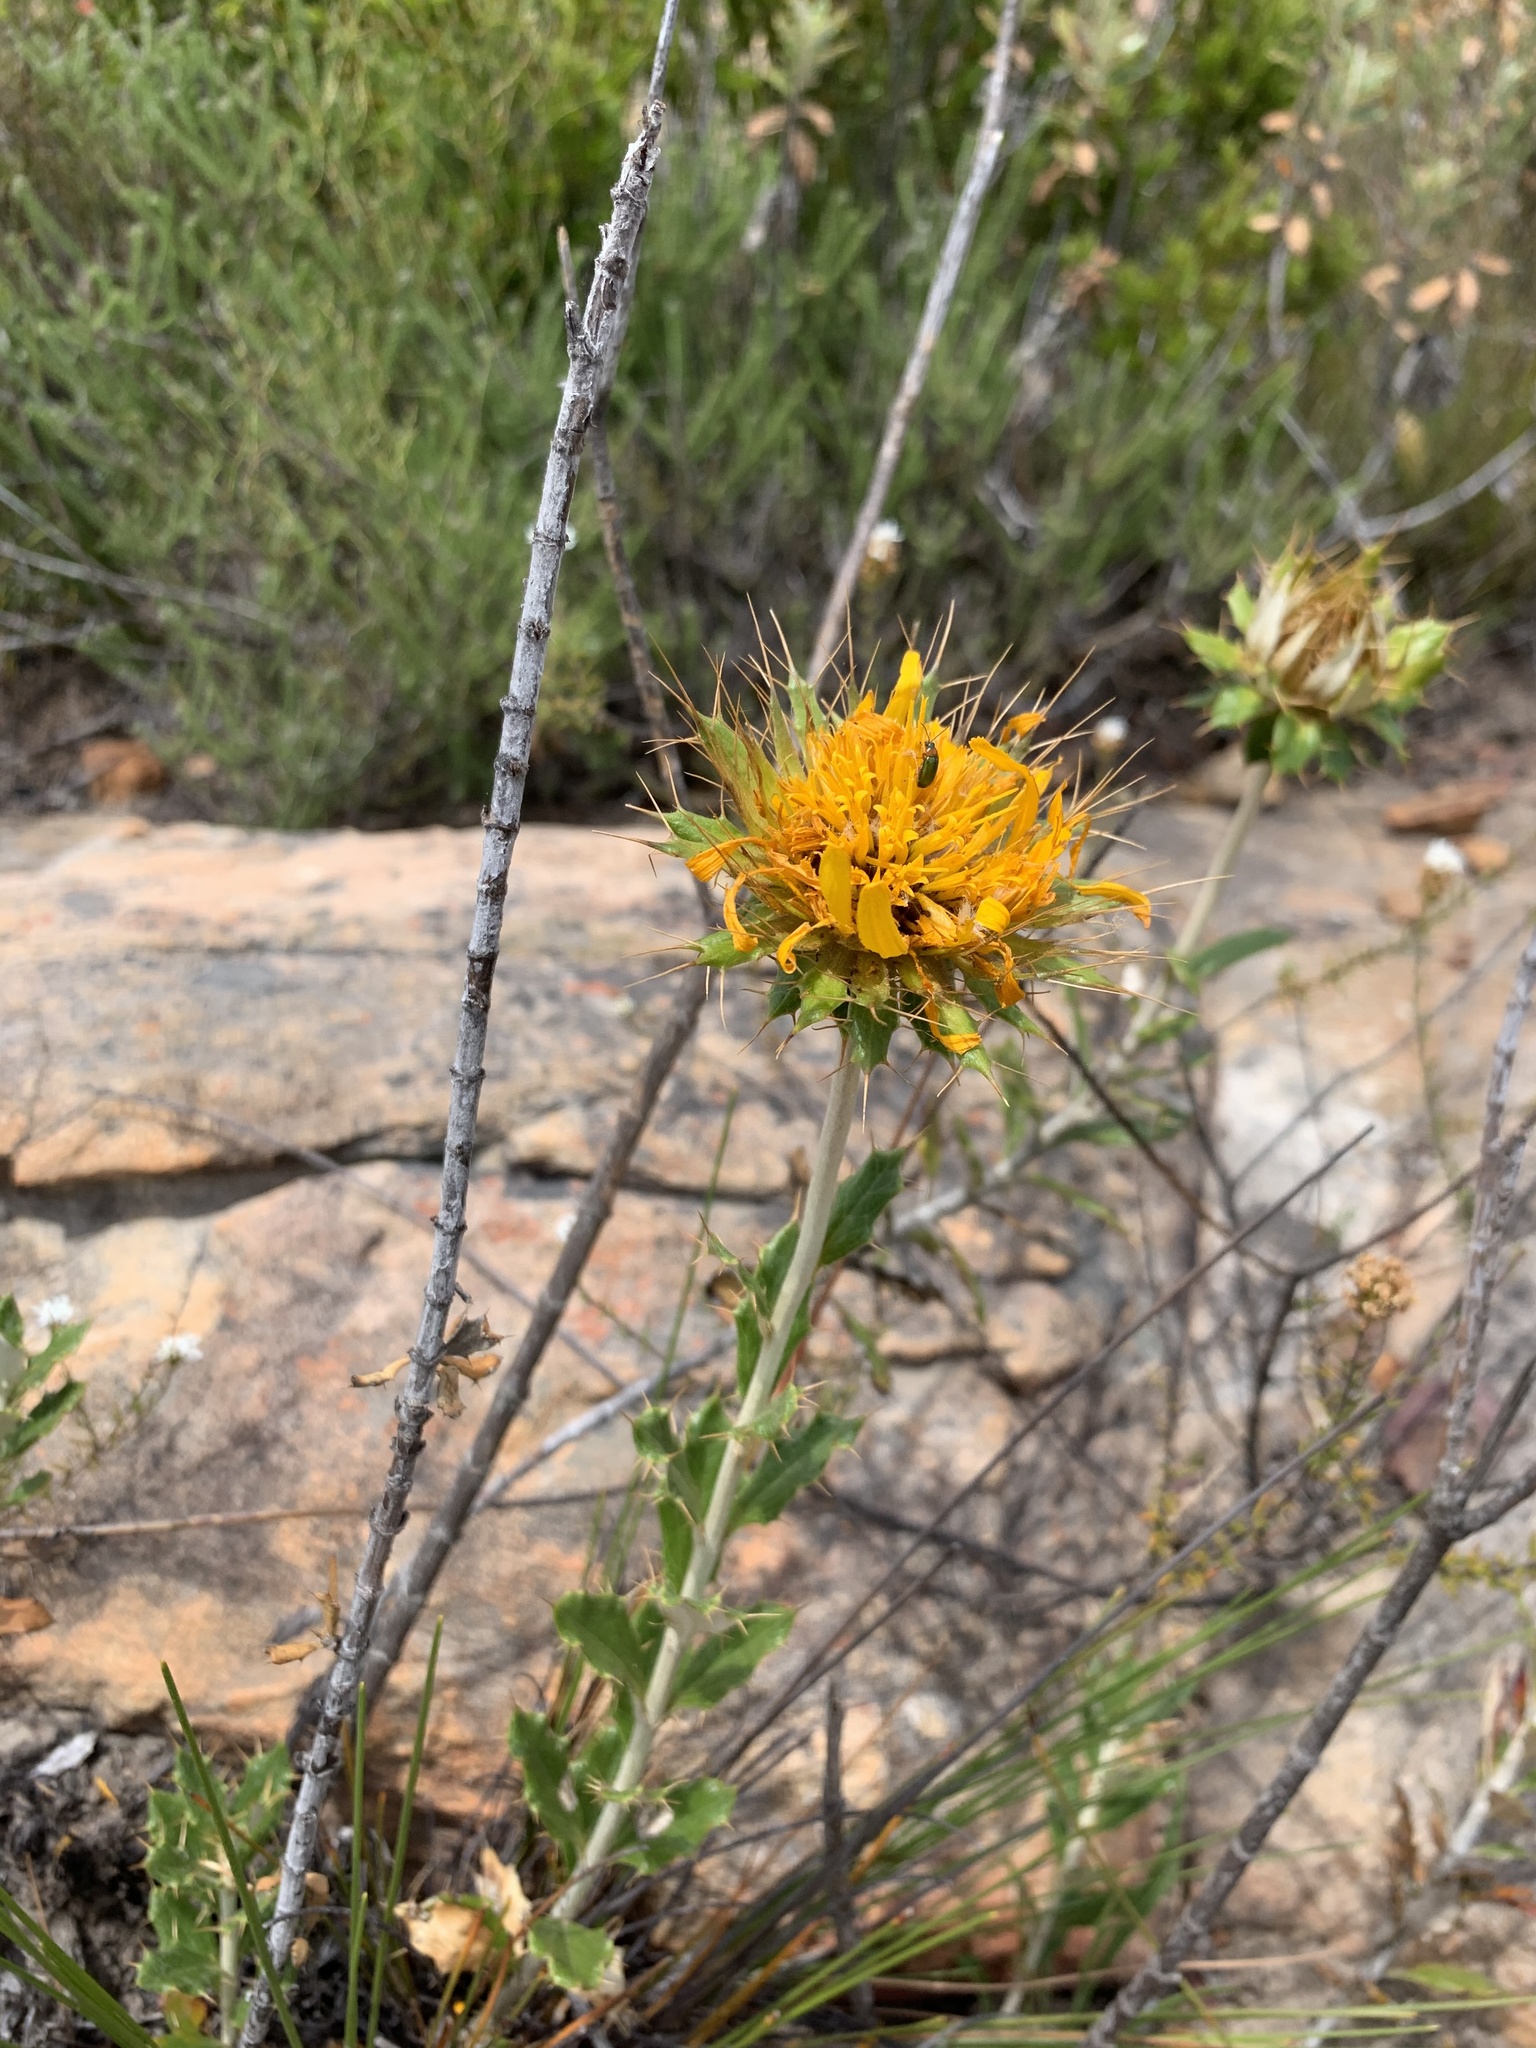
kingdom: Plantae
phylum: Tracheophyta
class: Magnoliopsida
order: Asterales
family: Asteraceae
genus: Berkheya
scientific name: Berkheya barbata
